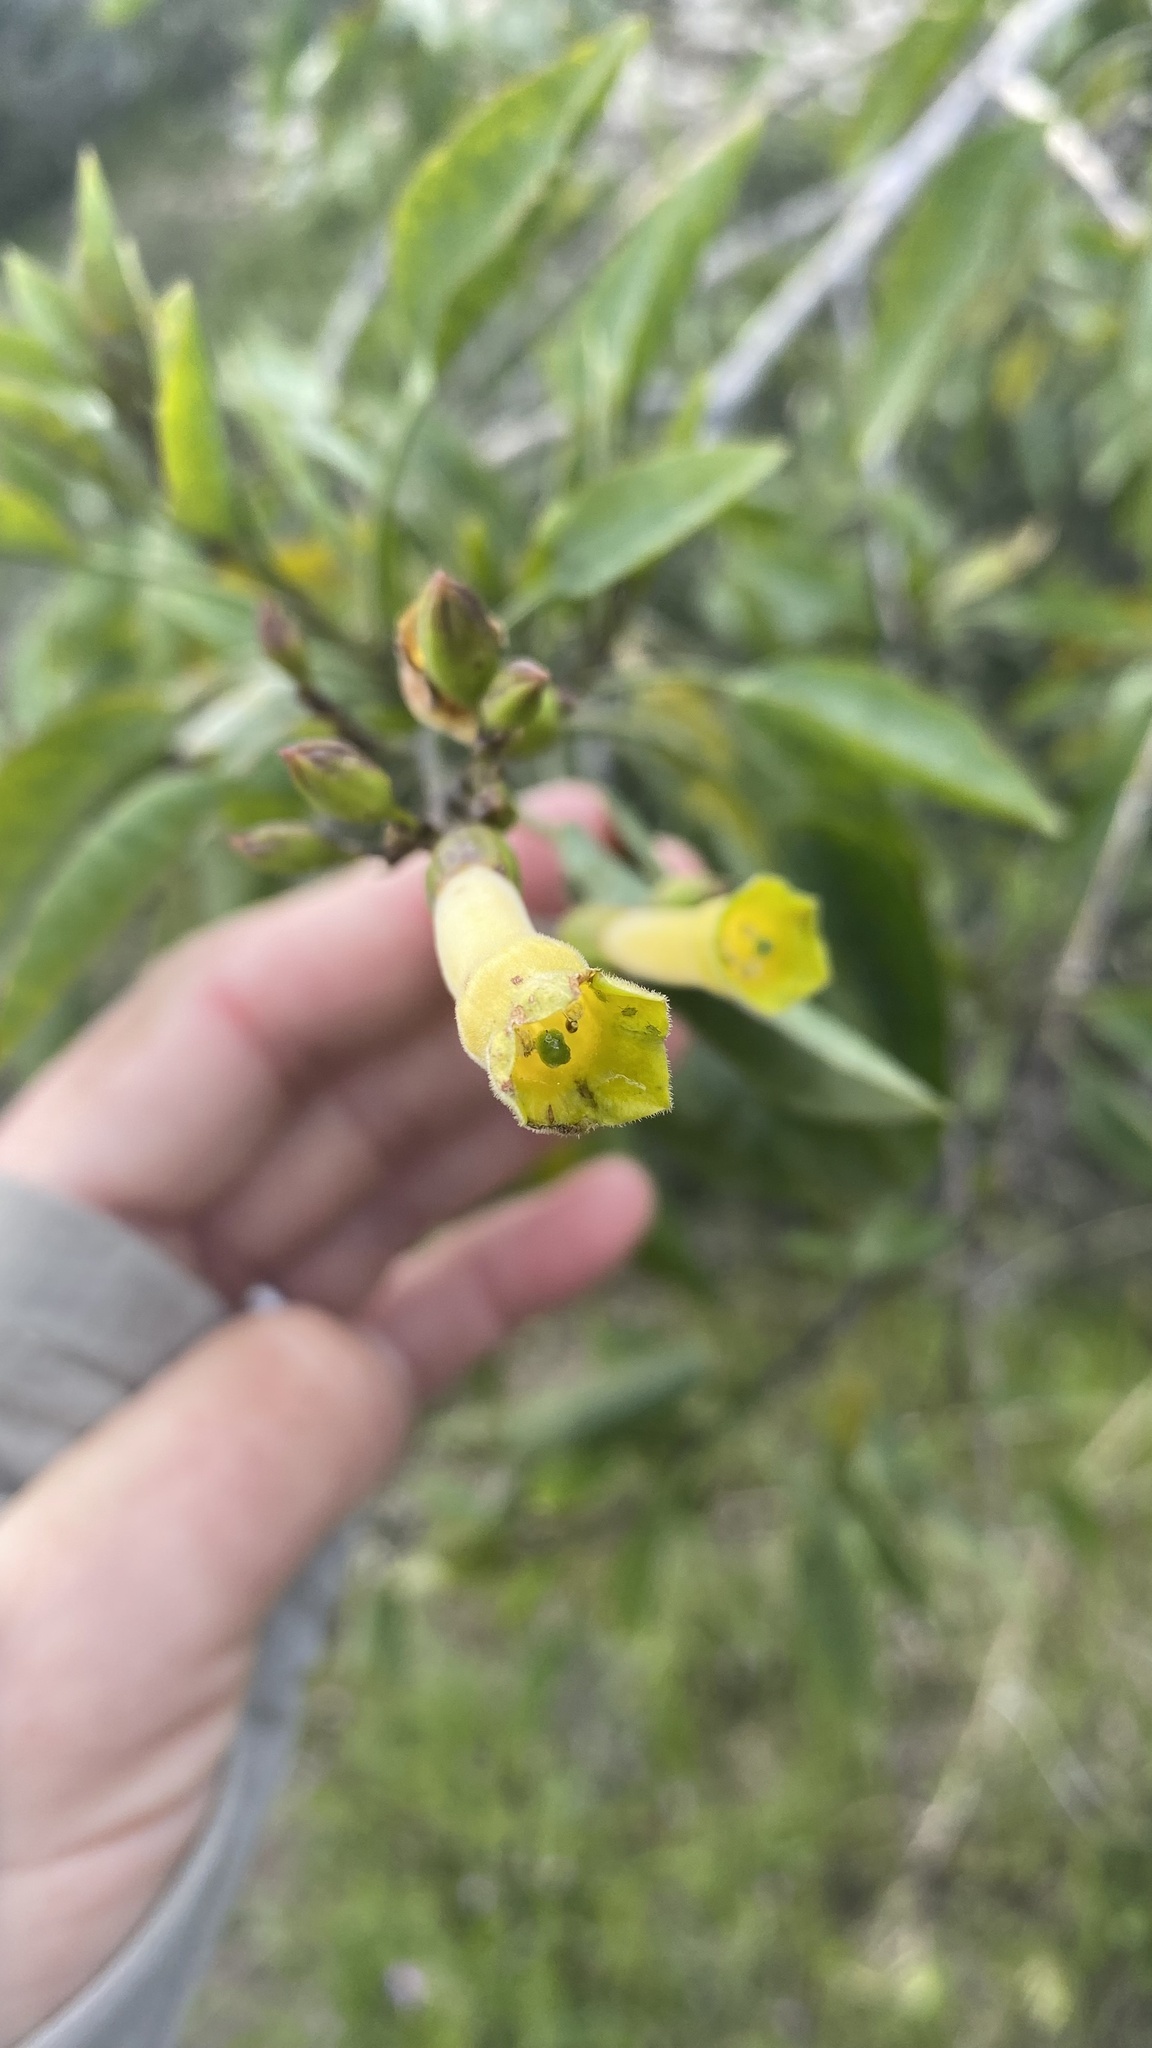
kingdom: Plantae
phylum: Tracheophyta
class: Magnoliopsida
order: Solanales
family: Solanaceae
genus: Nicotiana
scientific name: Nicotiana glauca
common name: Tree tobacco
